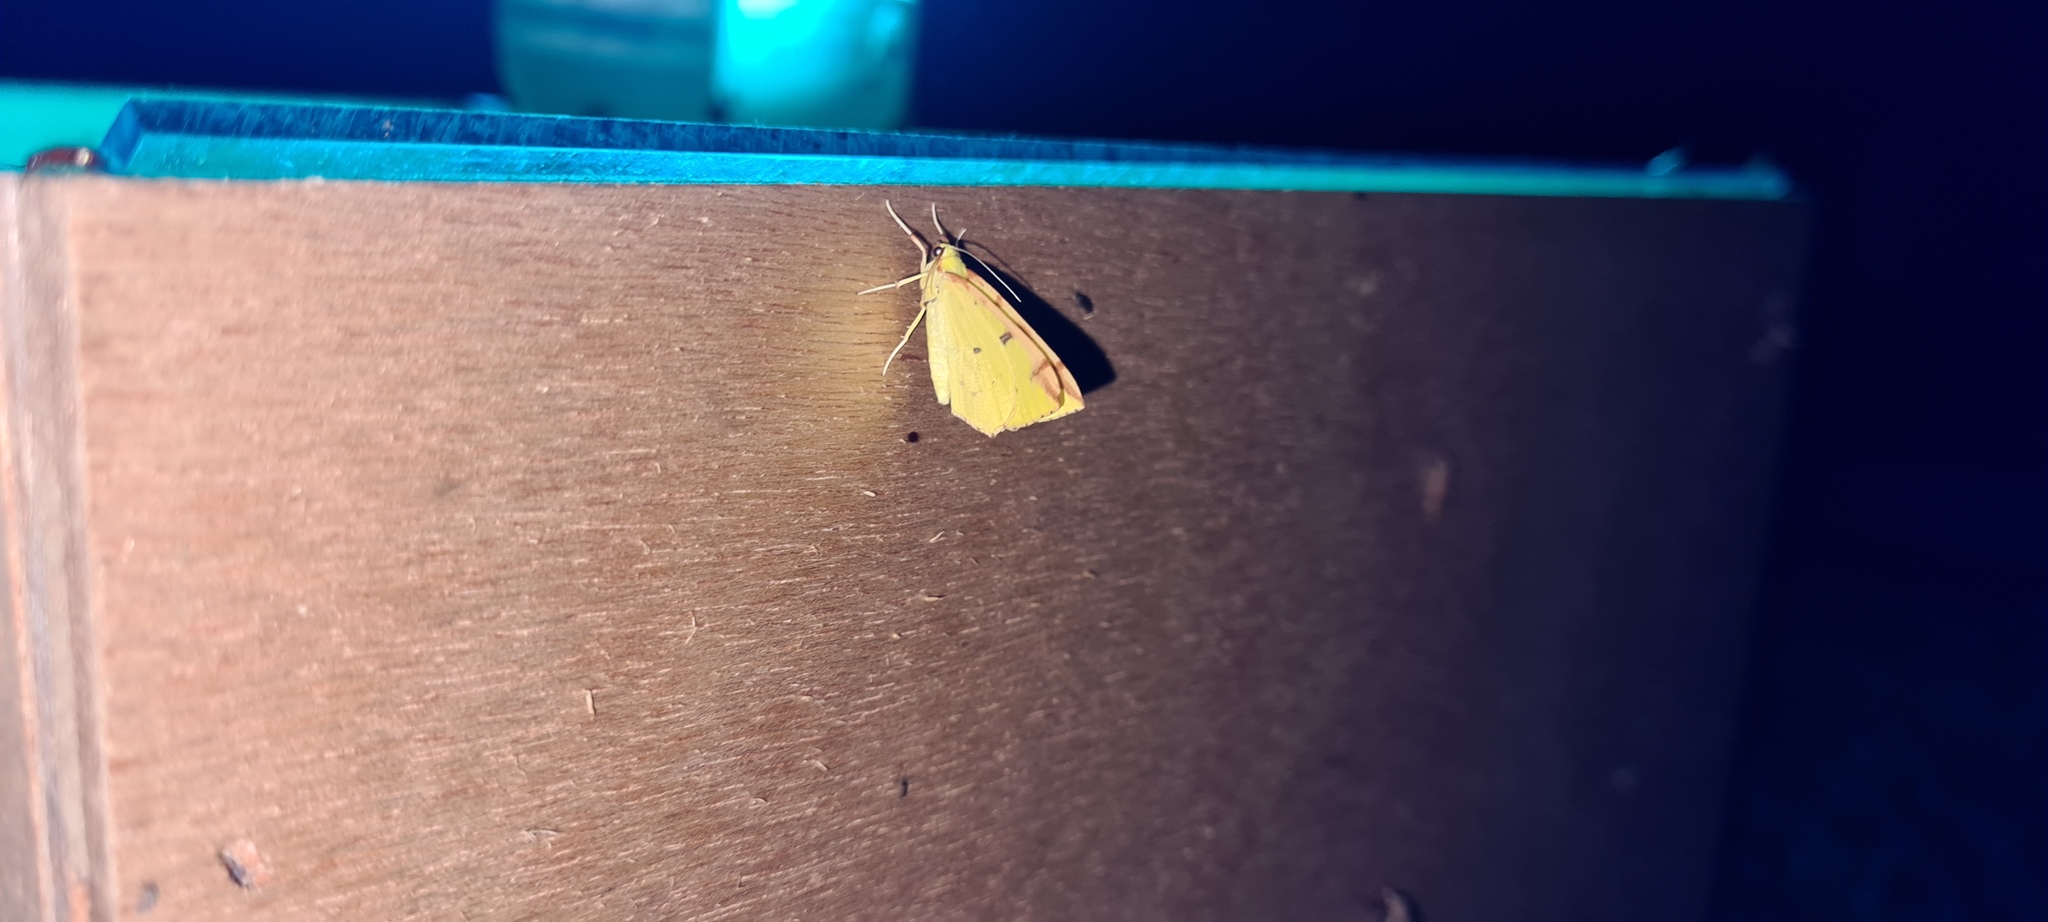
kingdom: Animalia
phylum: Arthropoda
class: Insecta
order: Lepidoptera
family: Geometridae
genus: Opisthograptis
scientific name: Opisthograptis luteolata
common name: Brimstone moth
